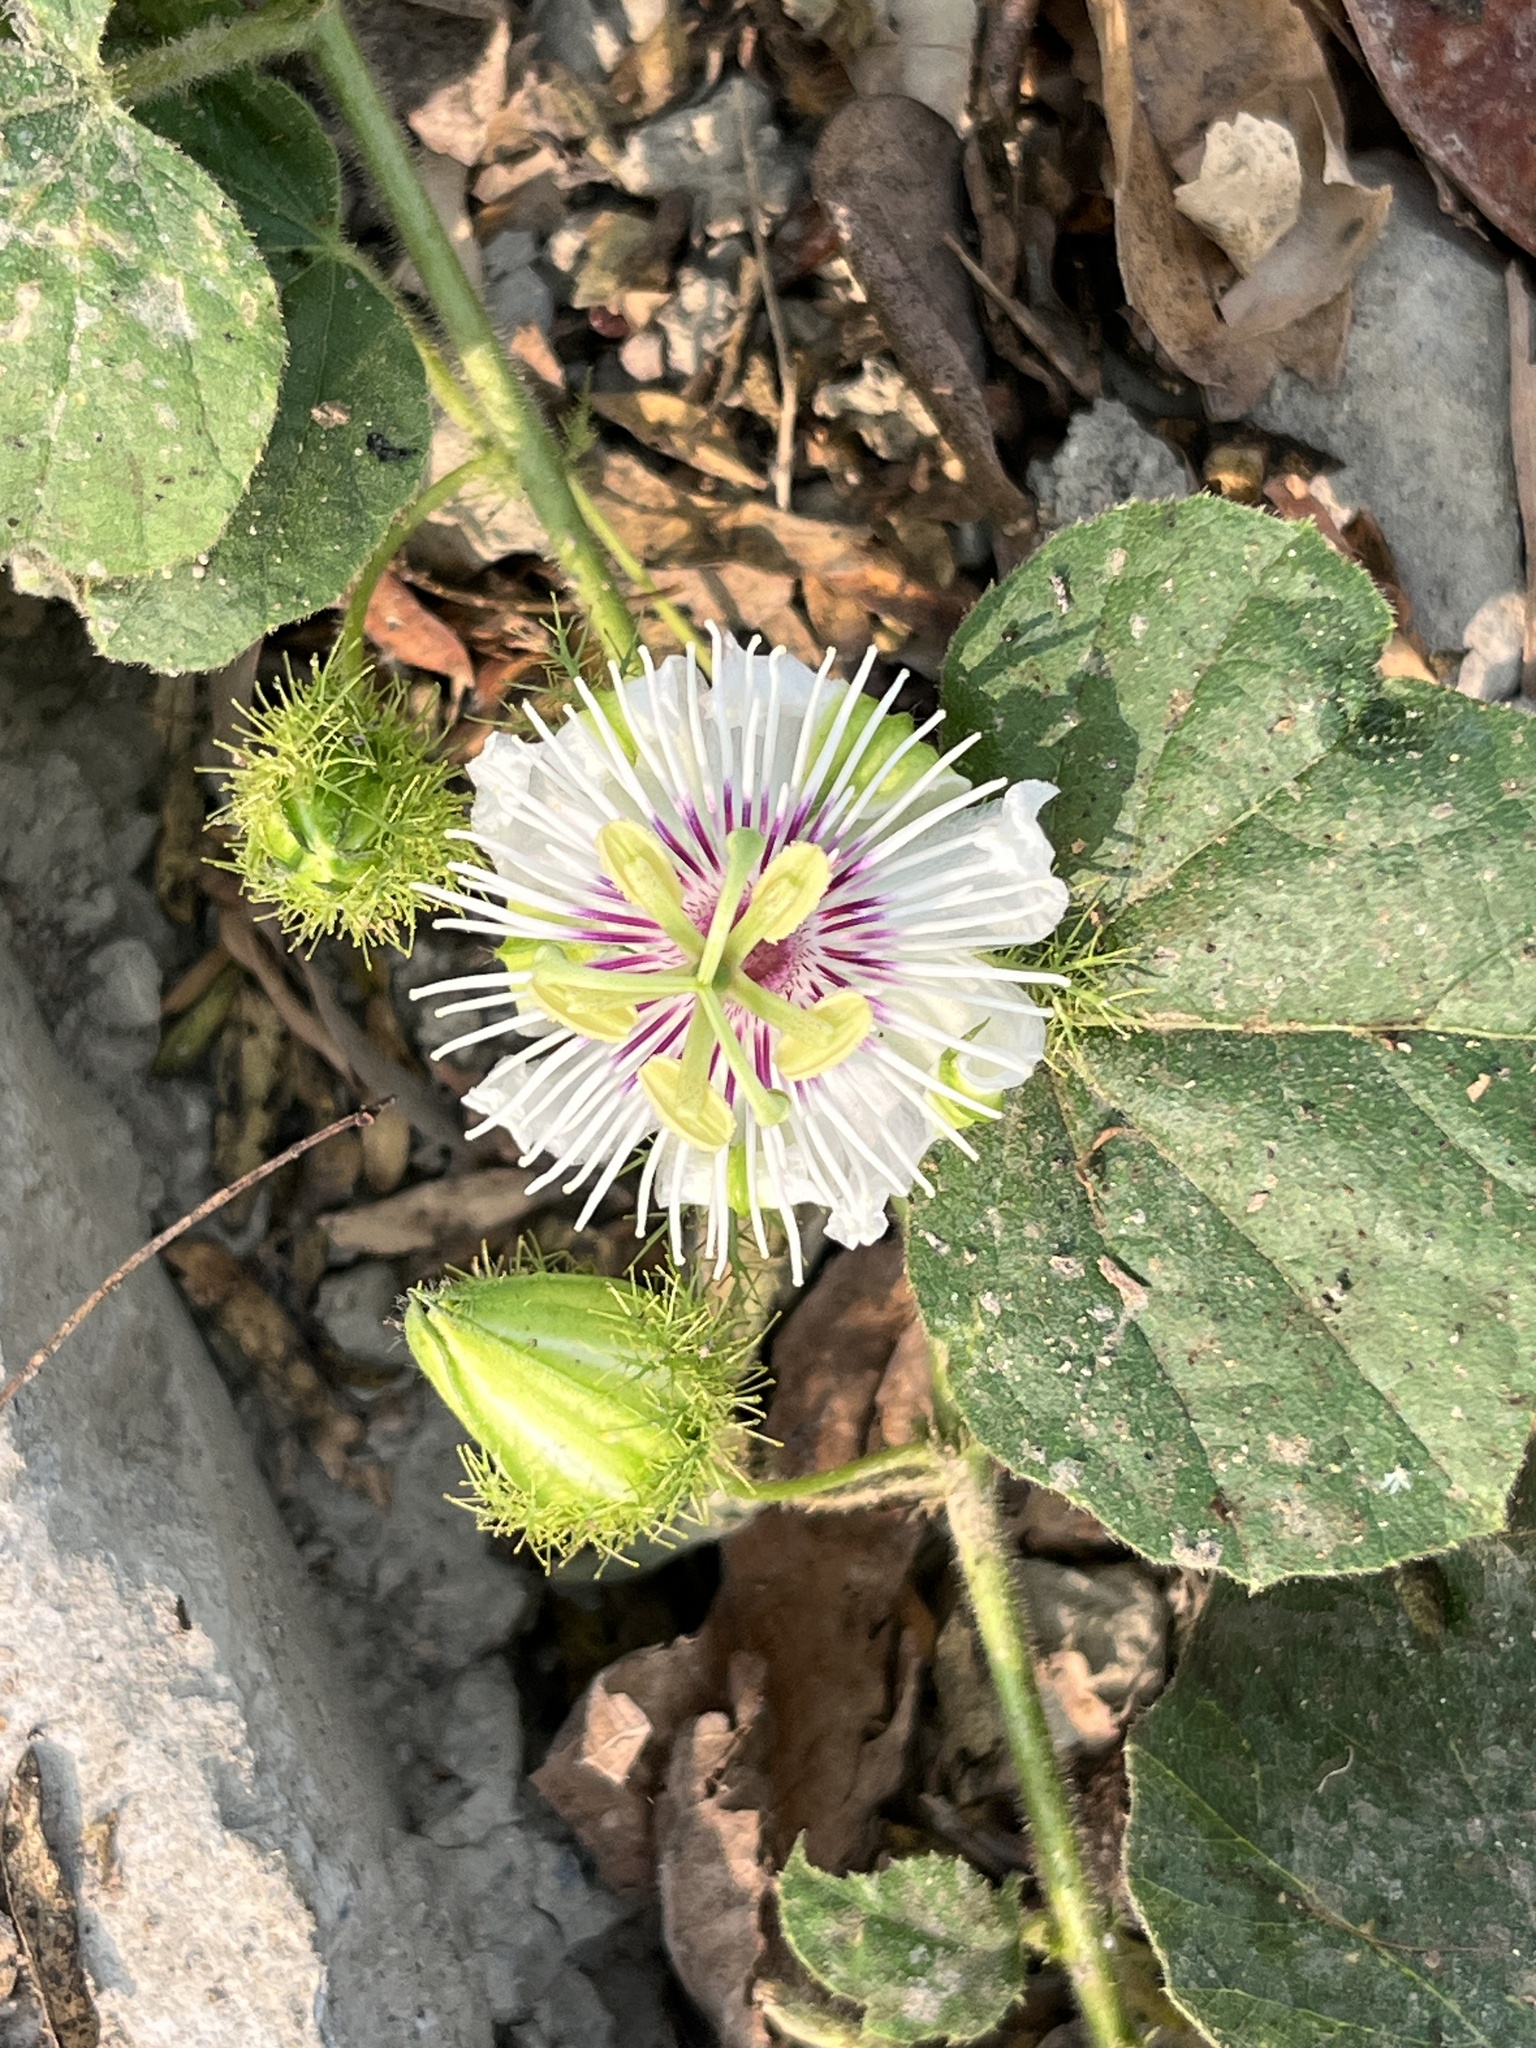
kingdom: Plantae
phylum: Tracheophyta
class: Magnoliopsida
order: Malpighiales
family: Passifloraceae
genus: Passiflora
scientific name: Passiflora vesicaria
